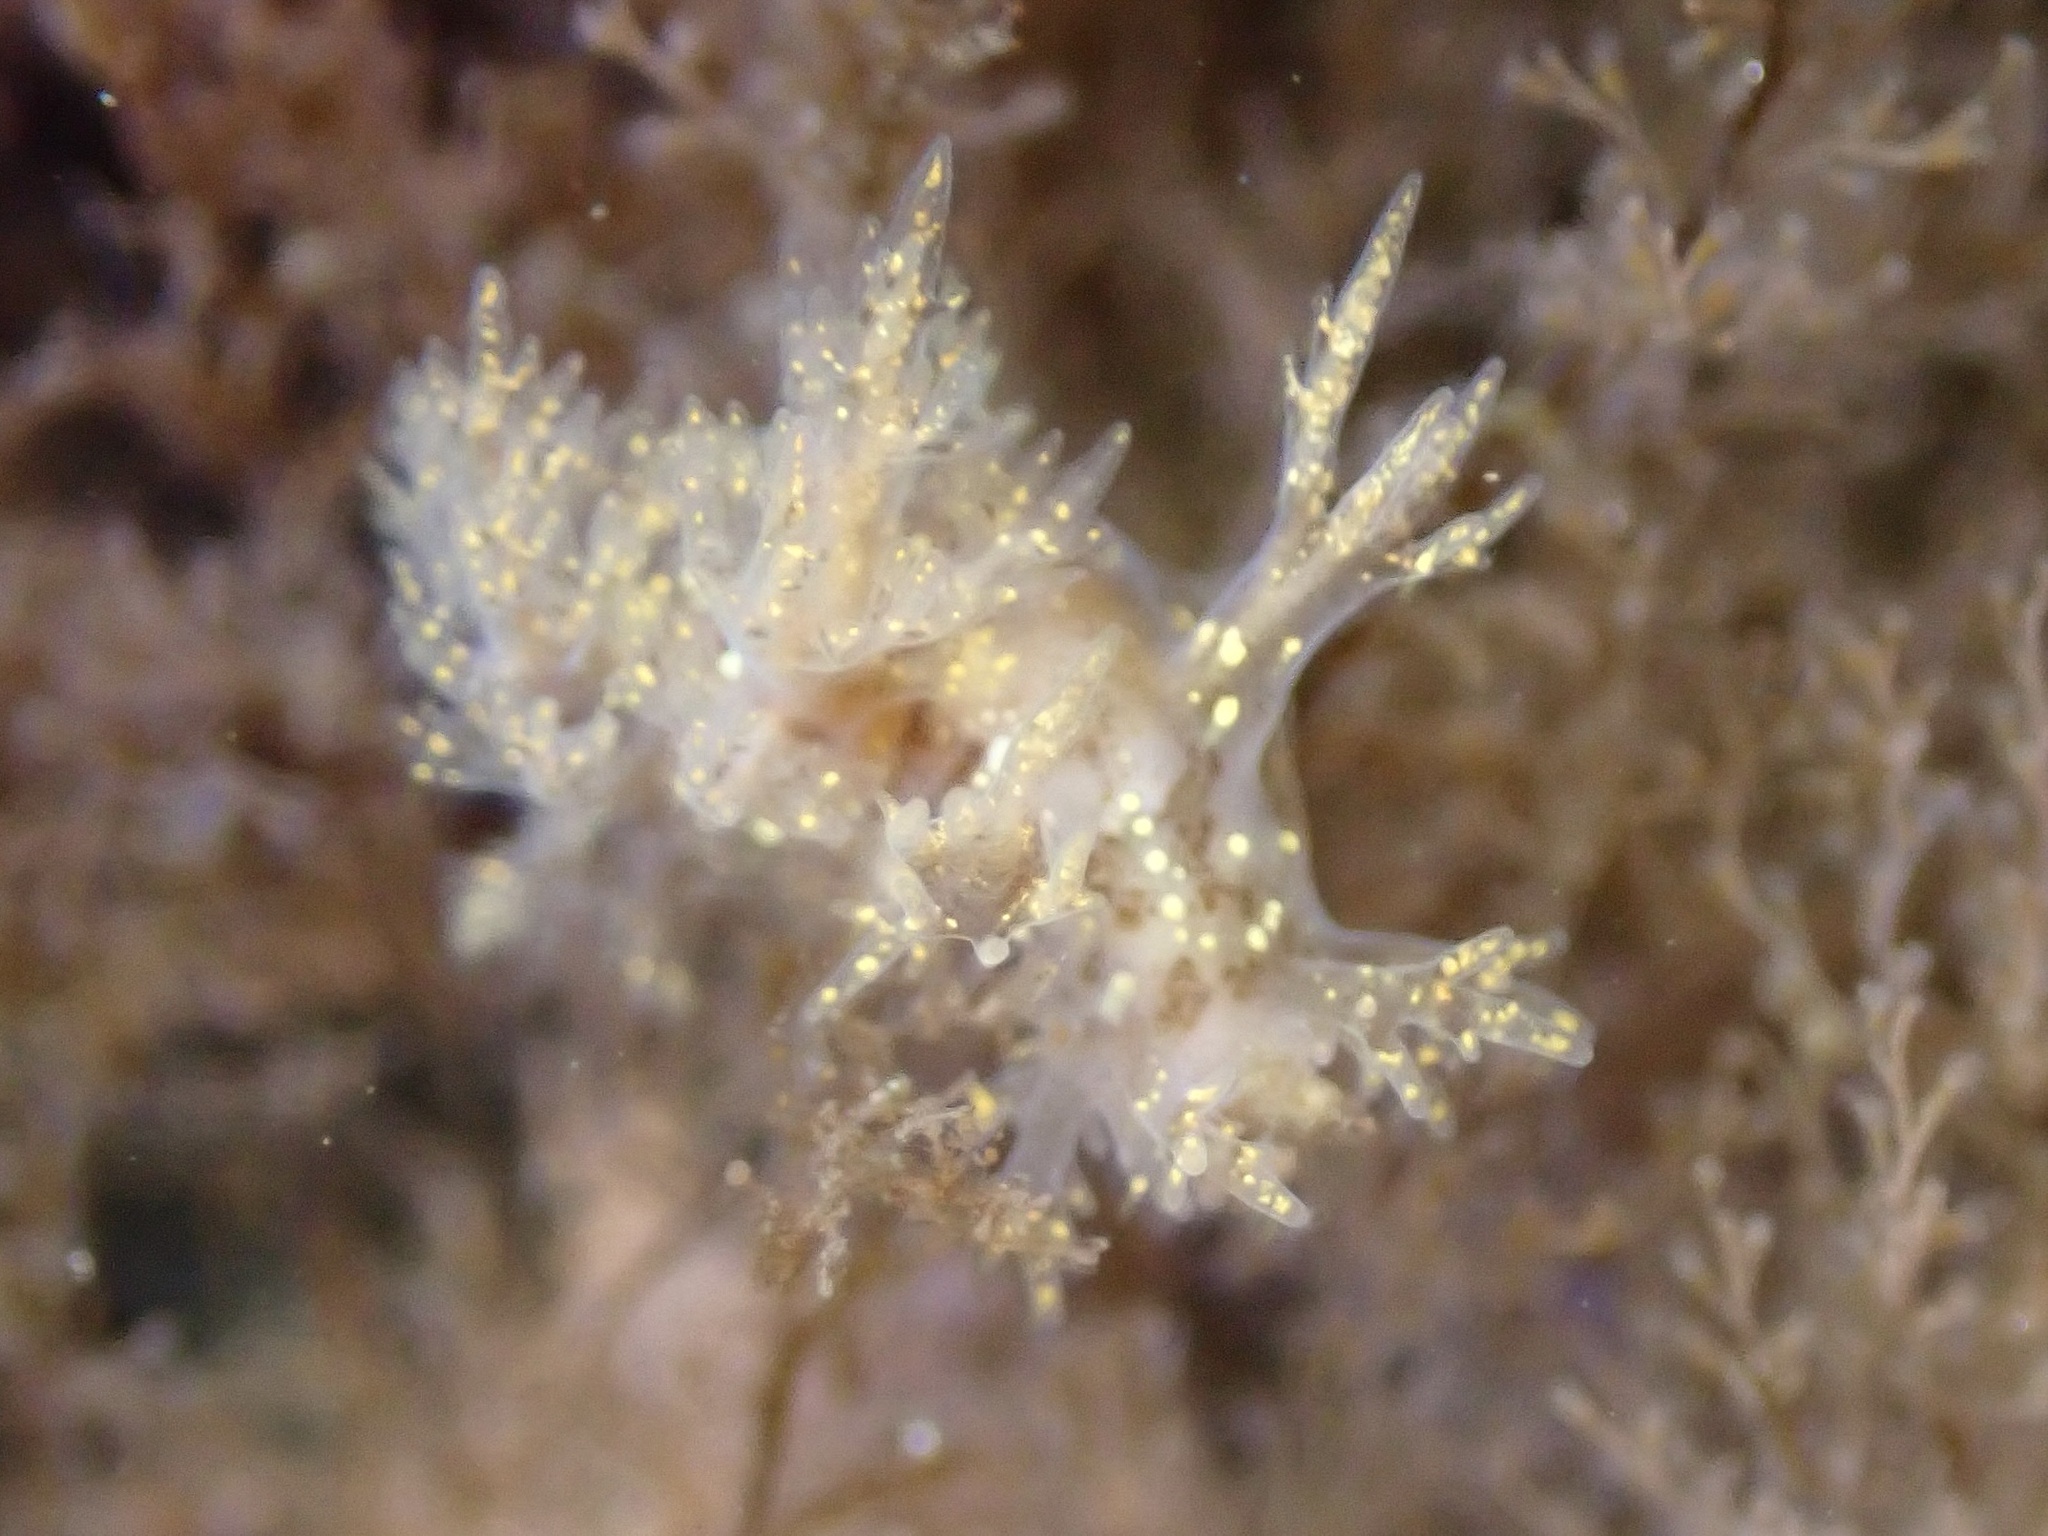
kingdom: Animalia
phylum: Mollusca
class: Gastropoda
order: Nudibranchia
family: Dendronotidae
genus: Dendronotus
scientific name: Dendronotus venustus
